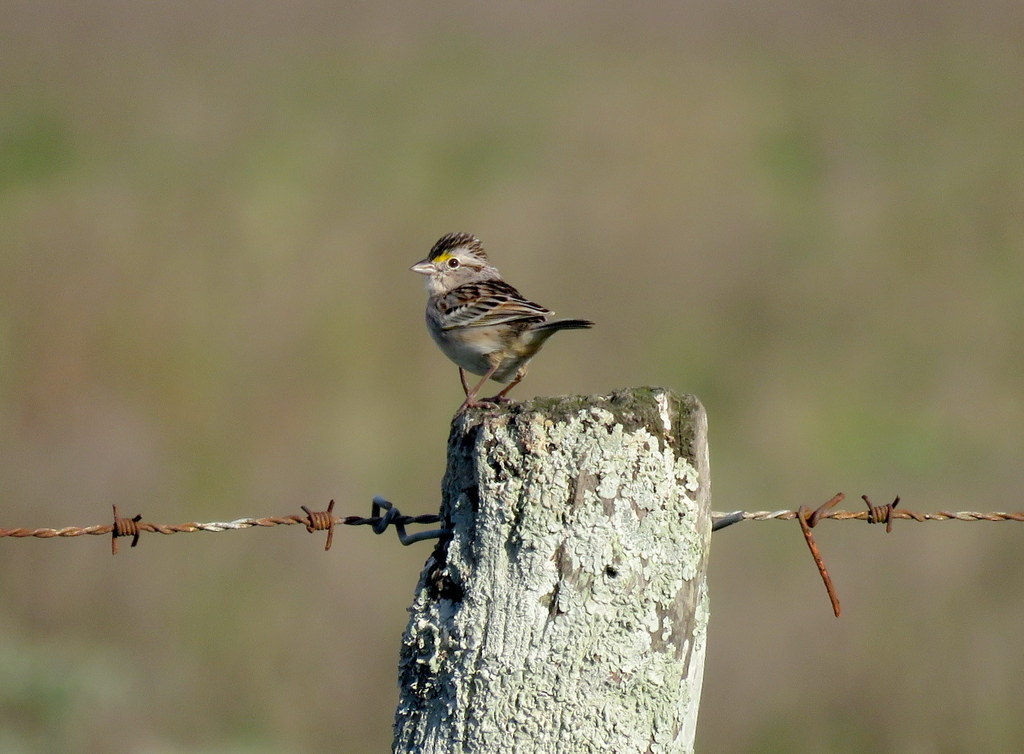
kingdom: Animalia
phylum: Chordata
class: Aves
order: Passeriformes
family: Passerellidae
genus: Ammodramus
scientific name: Ammodramus humeralis
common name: Grassland sparrow
